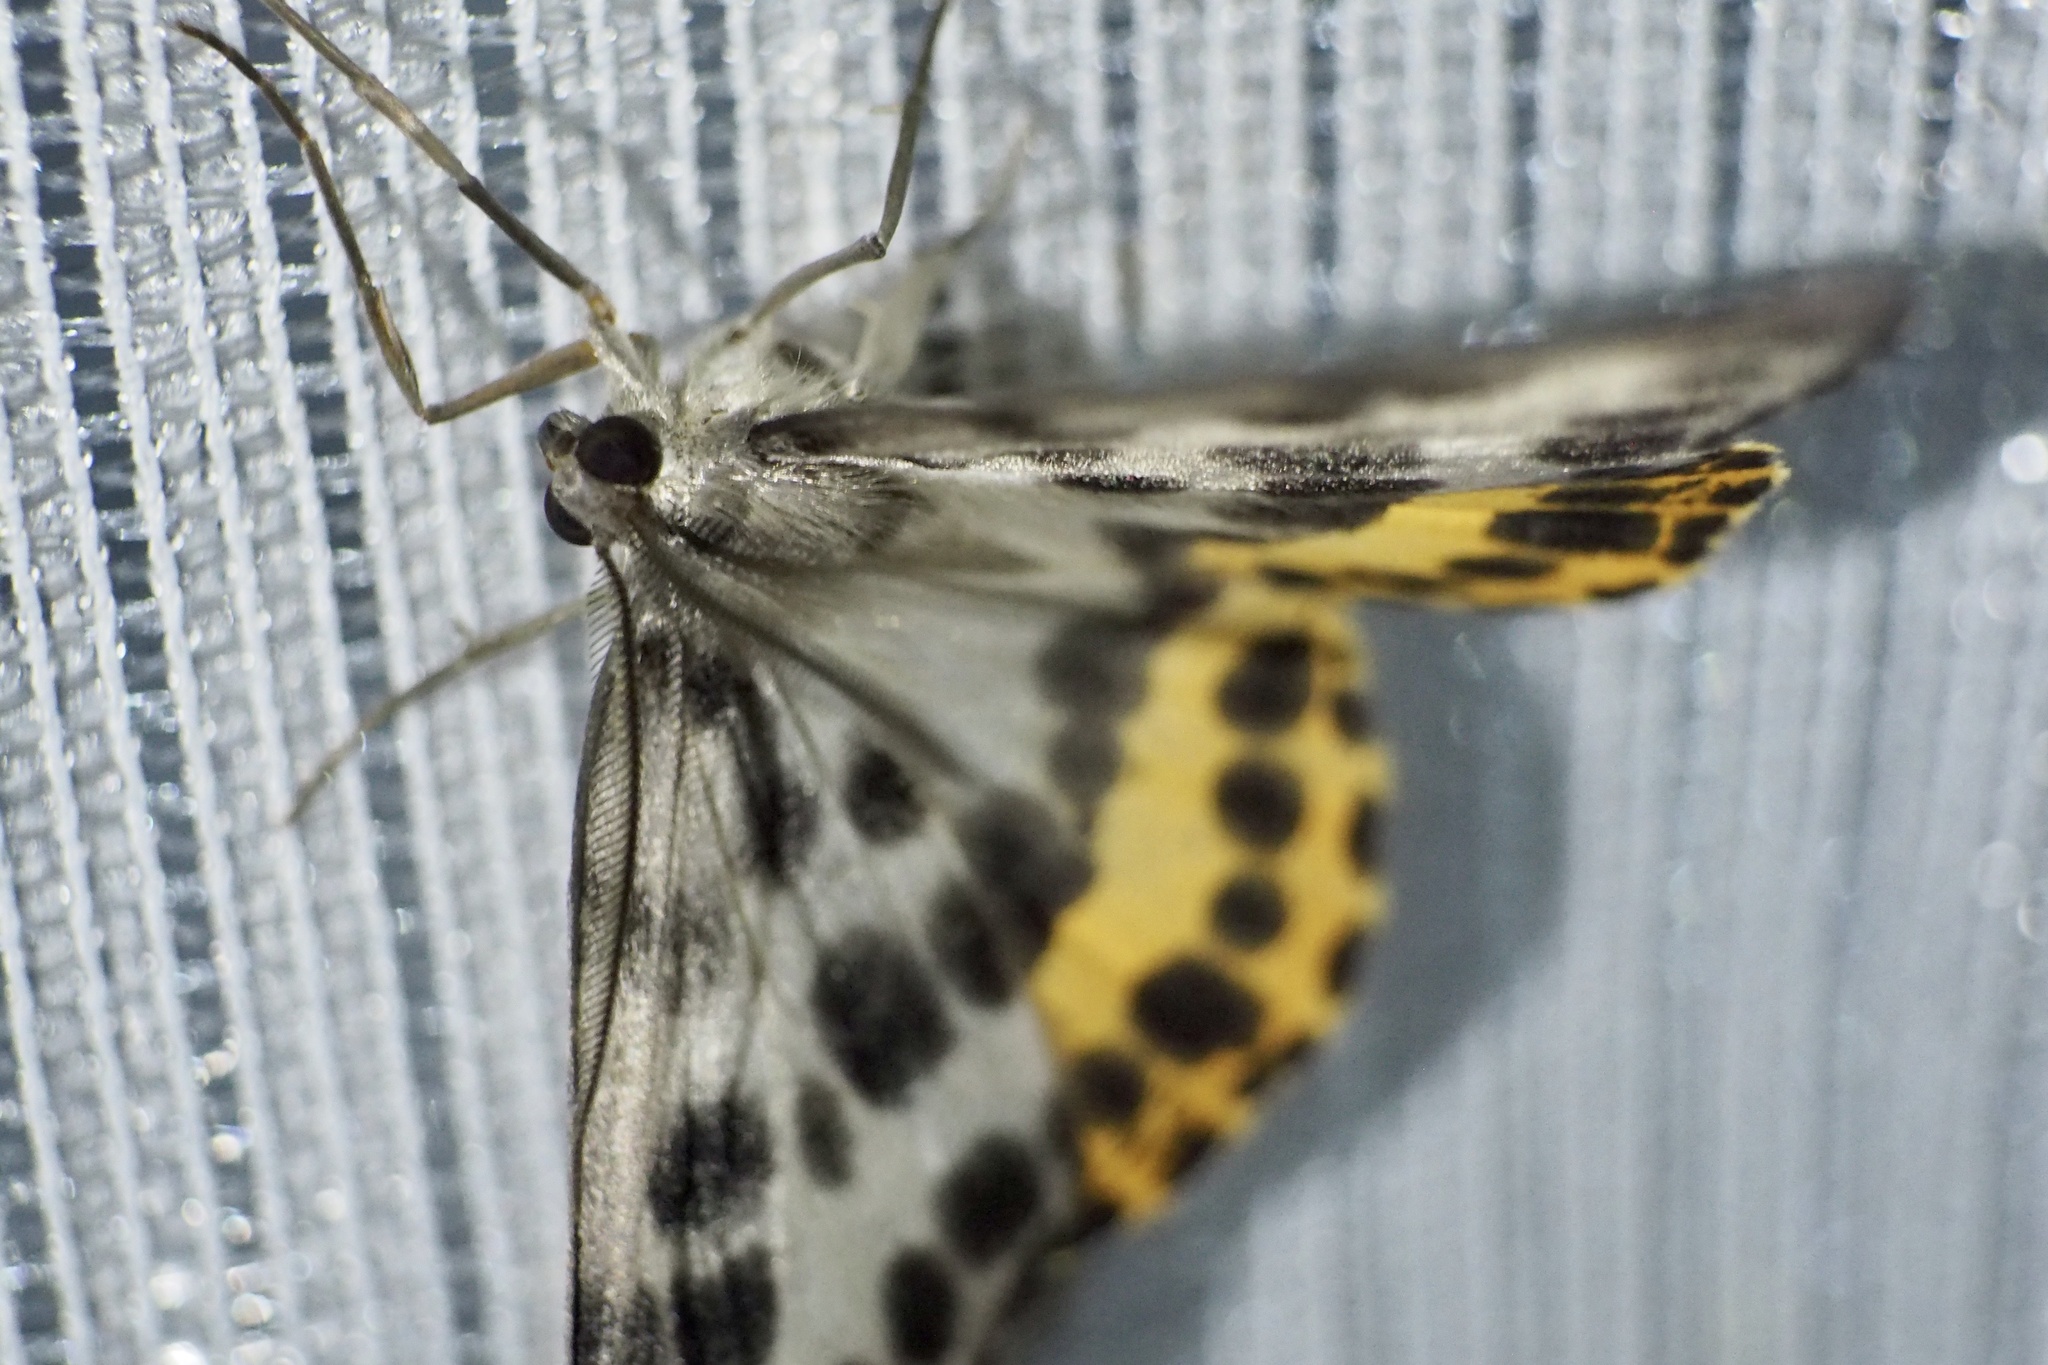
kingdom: Animalia
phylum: Arthropoda
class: Insecta
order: Lepidoptera
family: Geometridae
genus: Arichanna
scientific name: Arichanna
